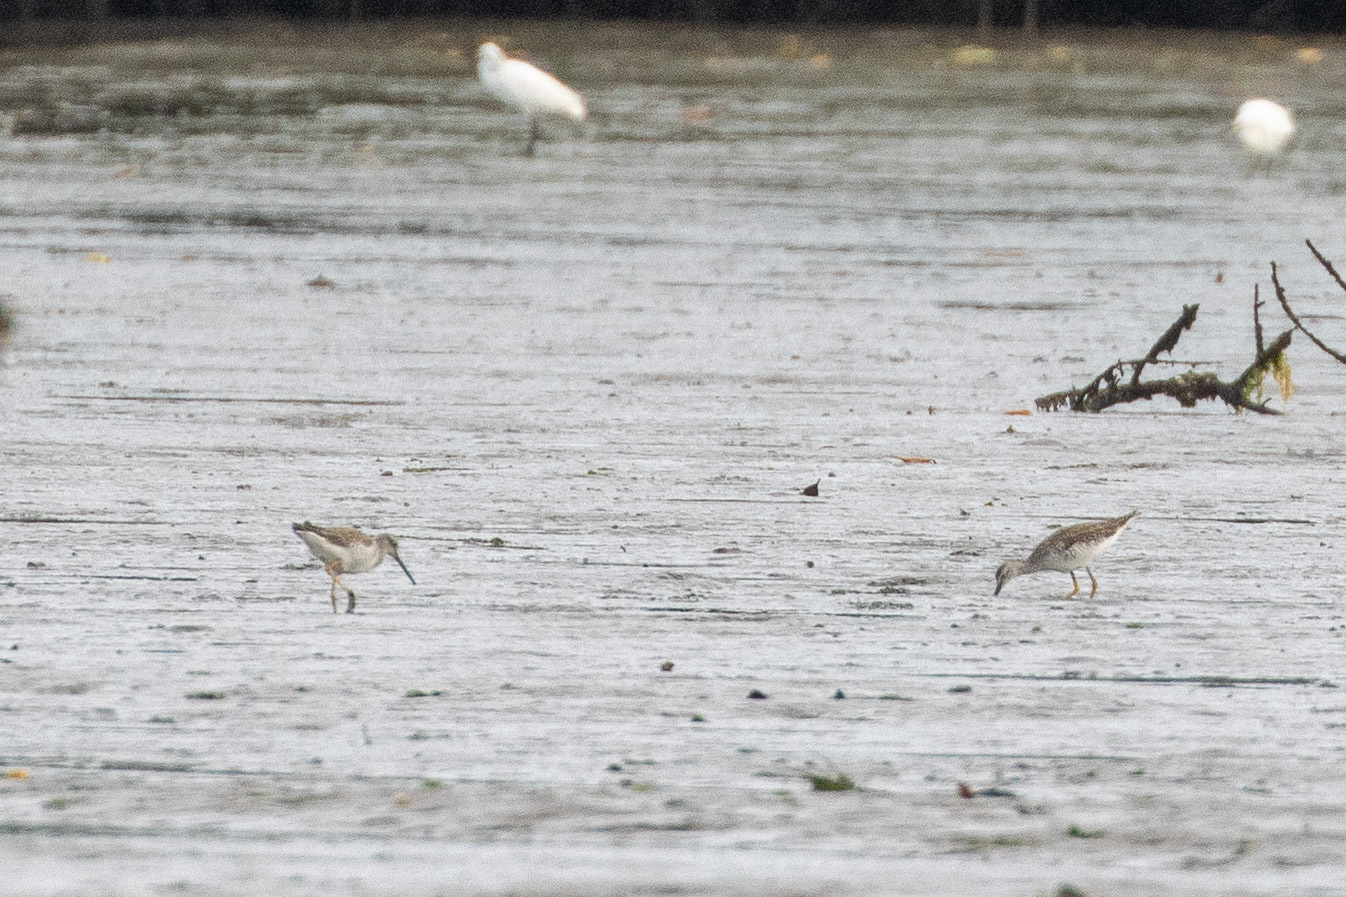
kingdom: Animalia
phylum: Chordata
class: Aves
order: Charadriiformes
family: Scolopacidae
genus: Tringa
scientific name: Tringa melanoleuca
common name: Greater yellowlegs
